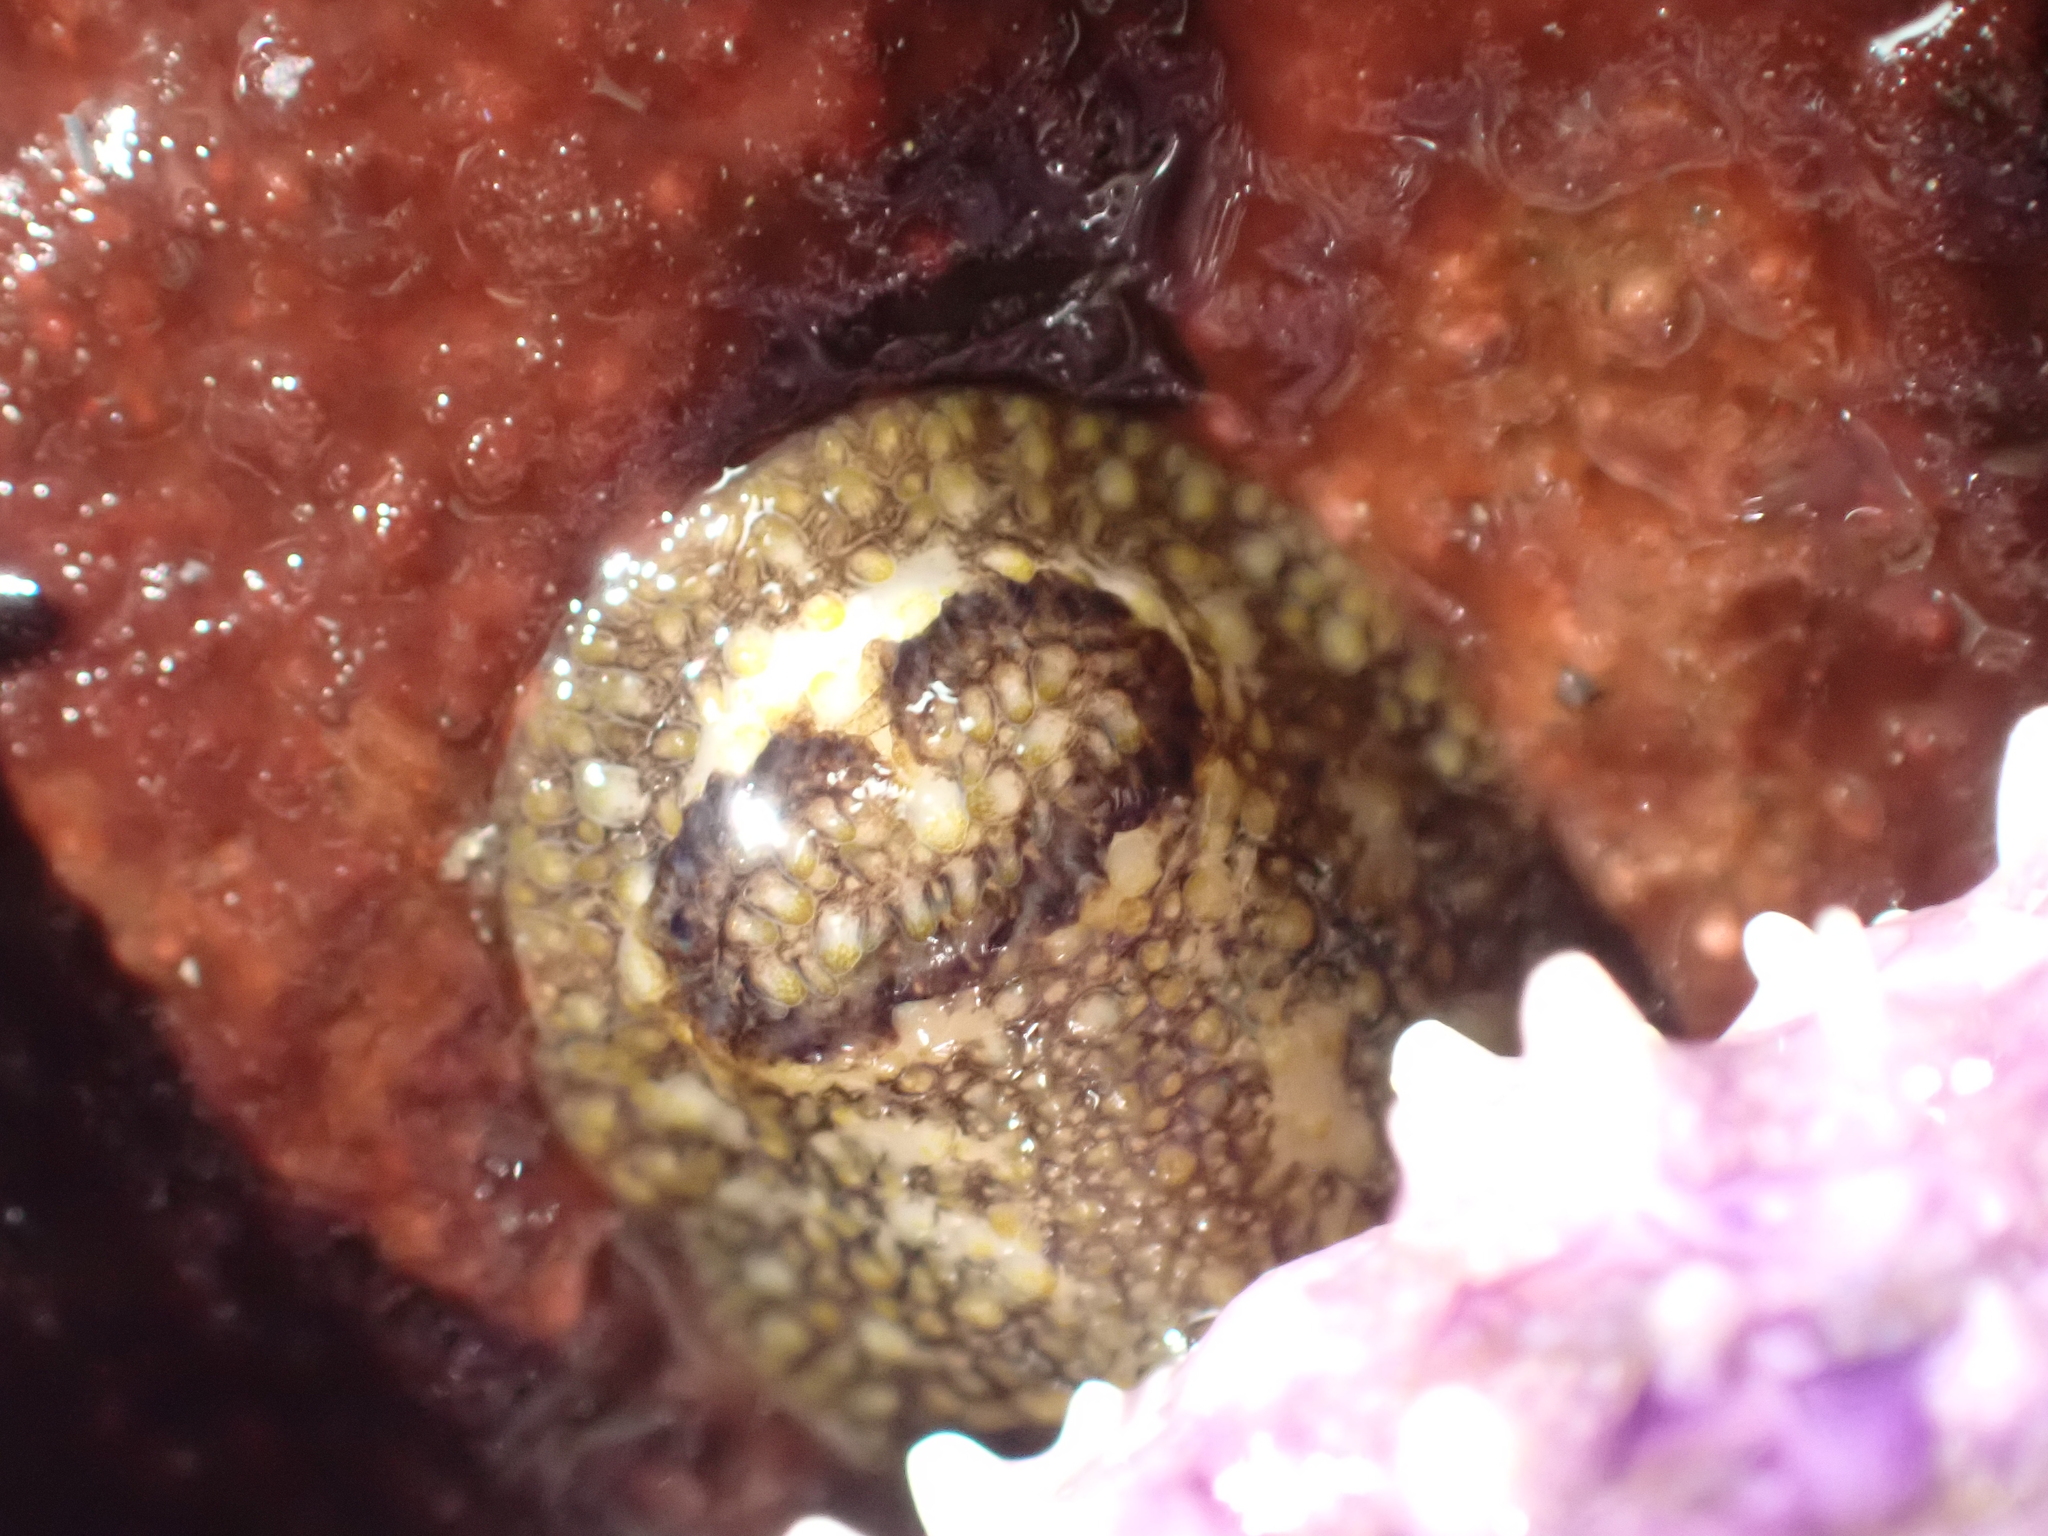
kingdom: Animalia
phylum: Mollusca
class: Gastropoda
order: Nudibranchia
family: Onchidorididae
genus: Onchidoris
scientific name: Onchidoris bilamellata
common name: Barnacle-eating onchidoris
